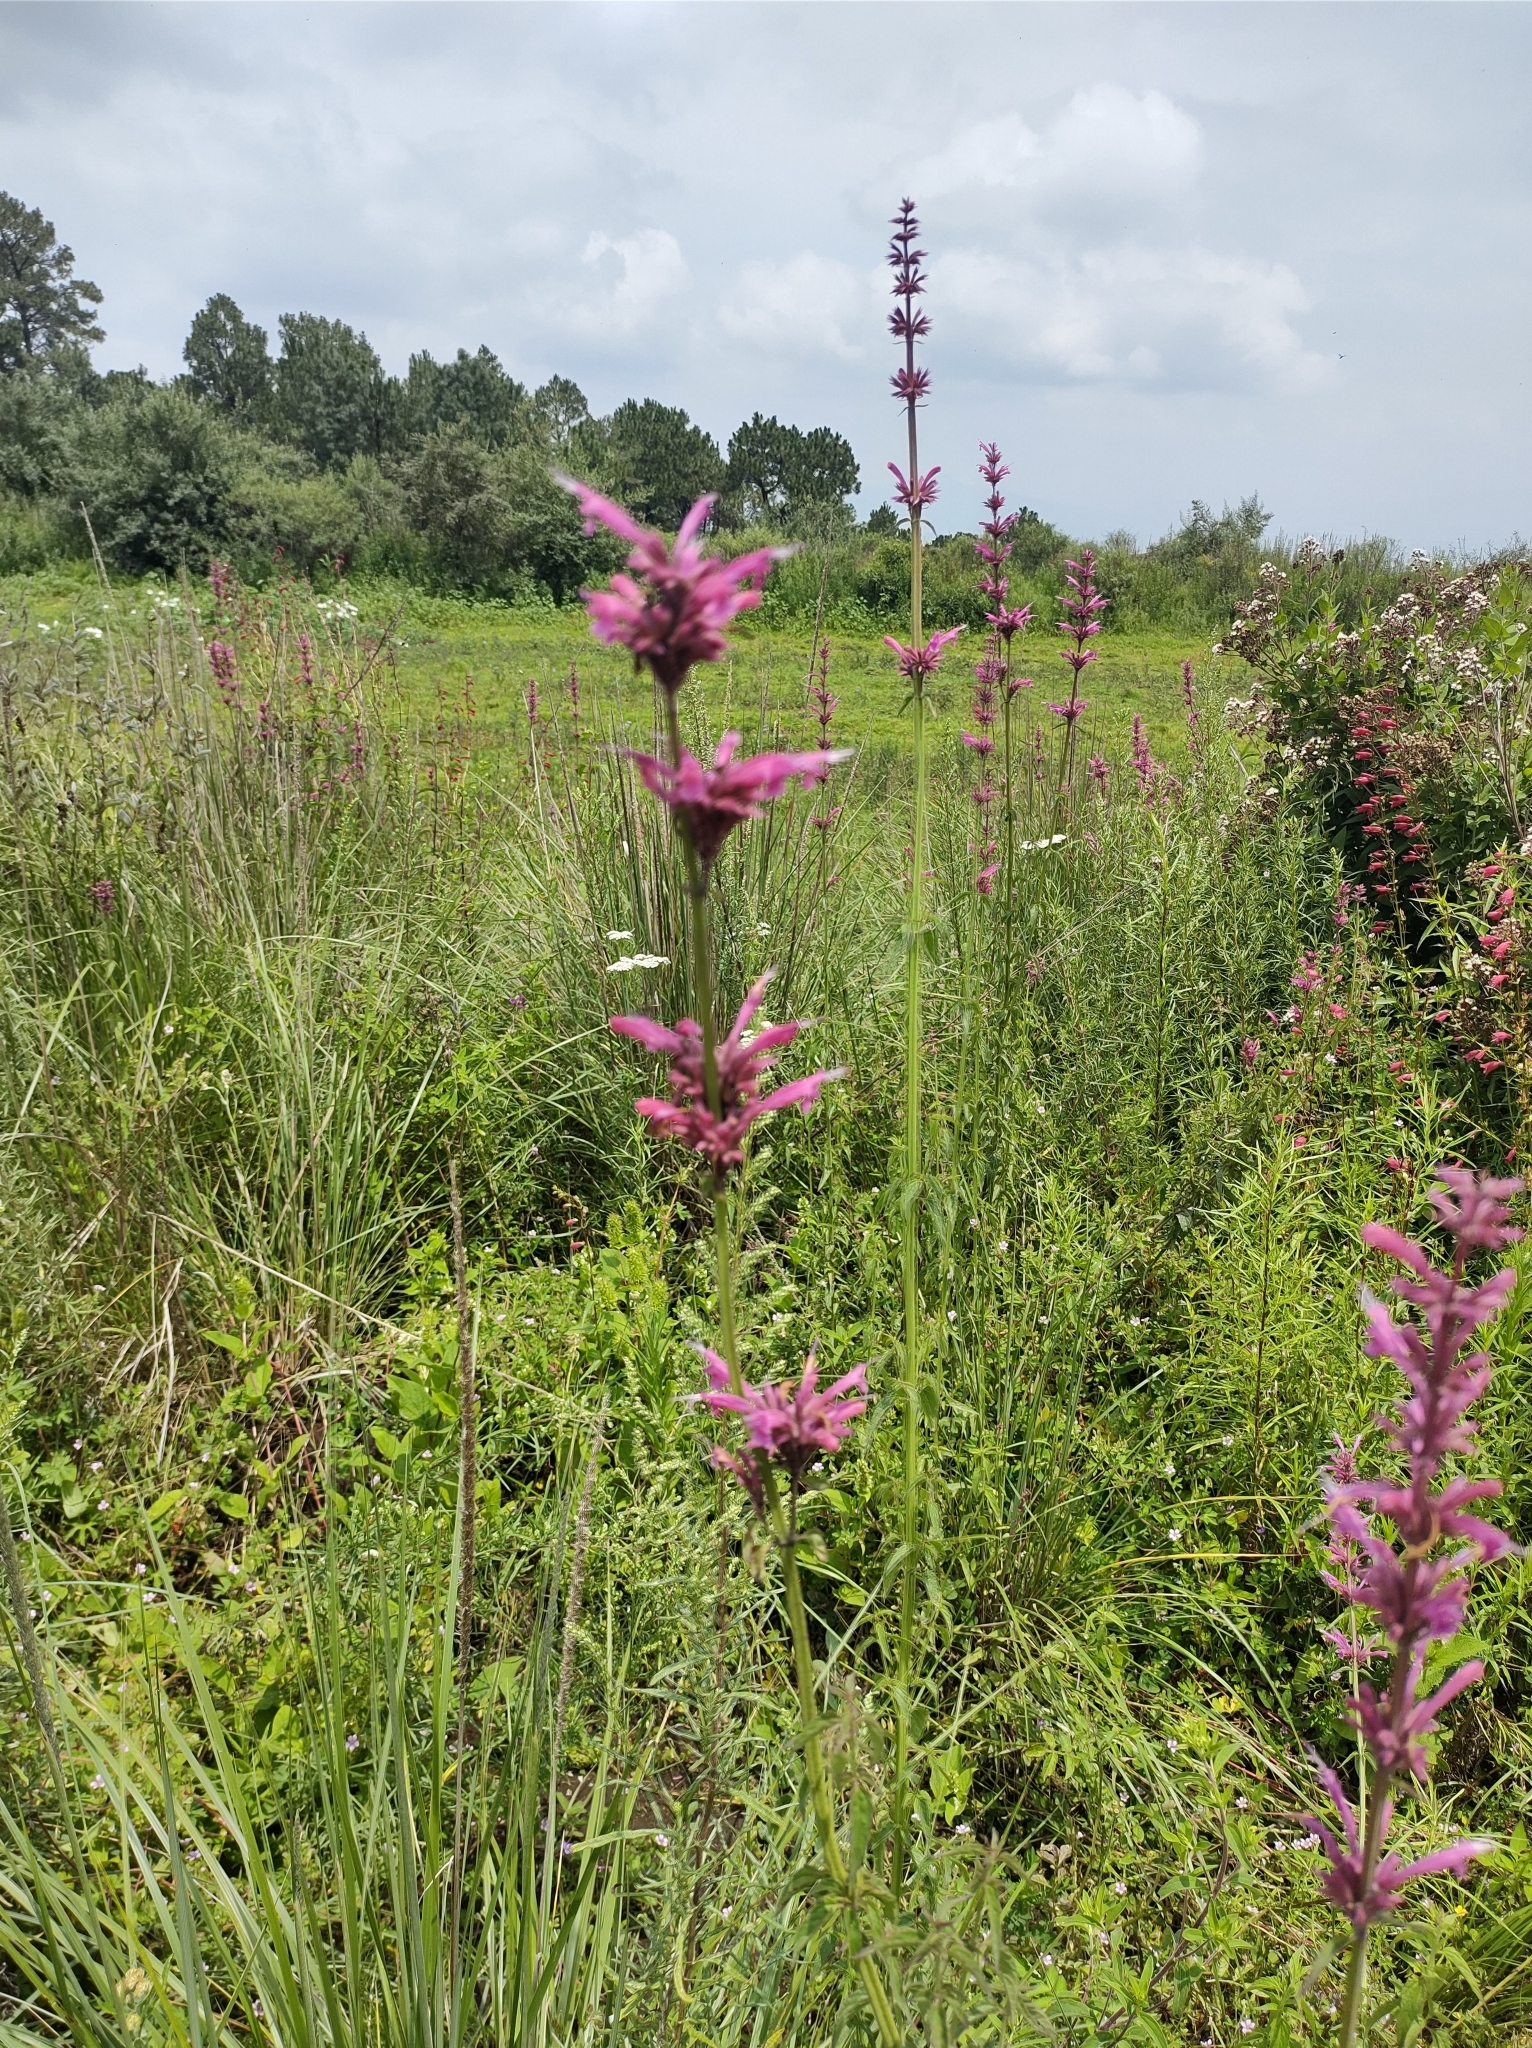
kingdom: Plantae
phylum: Tracheophyta
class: Magnoliopsida
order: Lamiales
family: Lamiaceae
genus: Agastache
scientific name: Agastache mexicana
